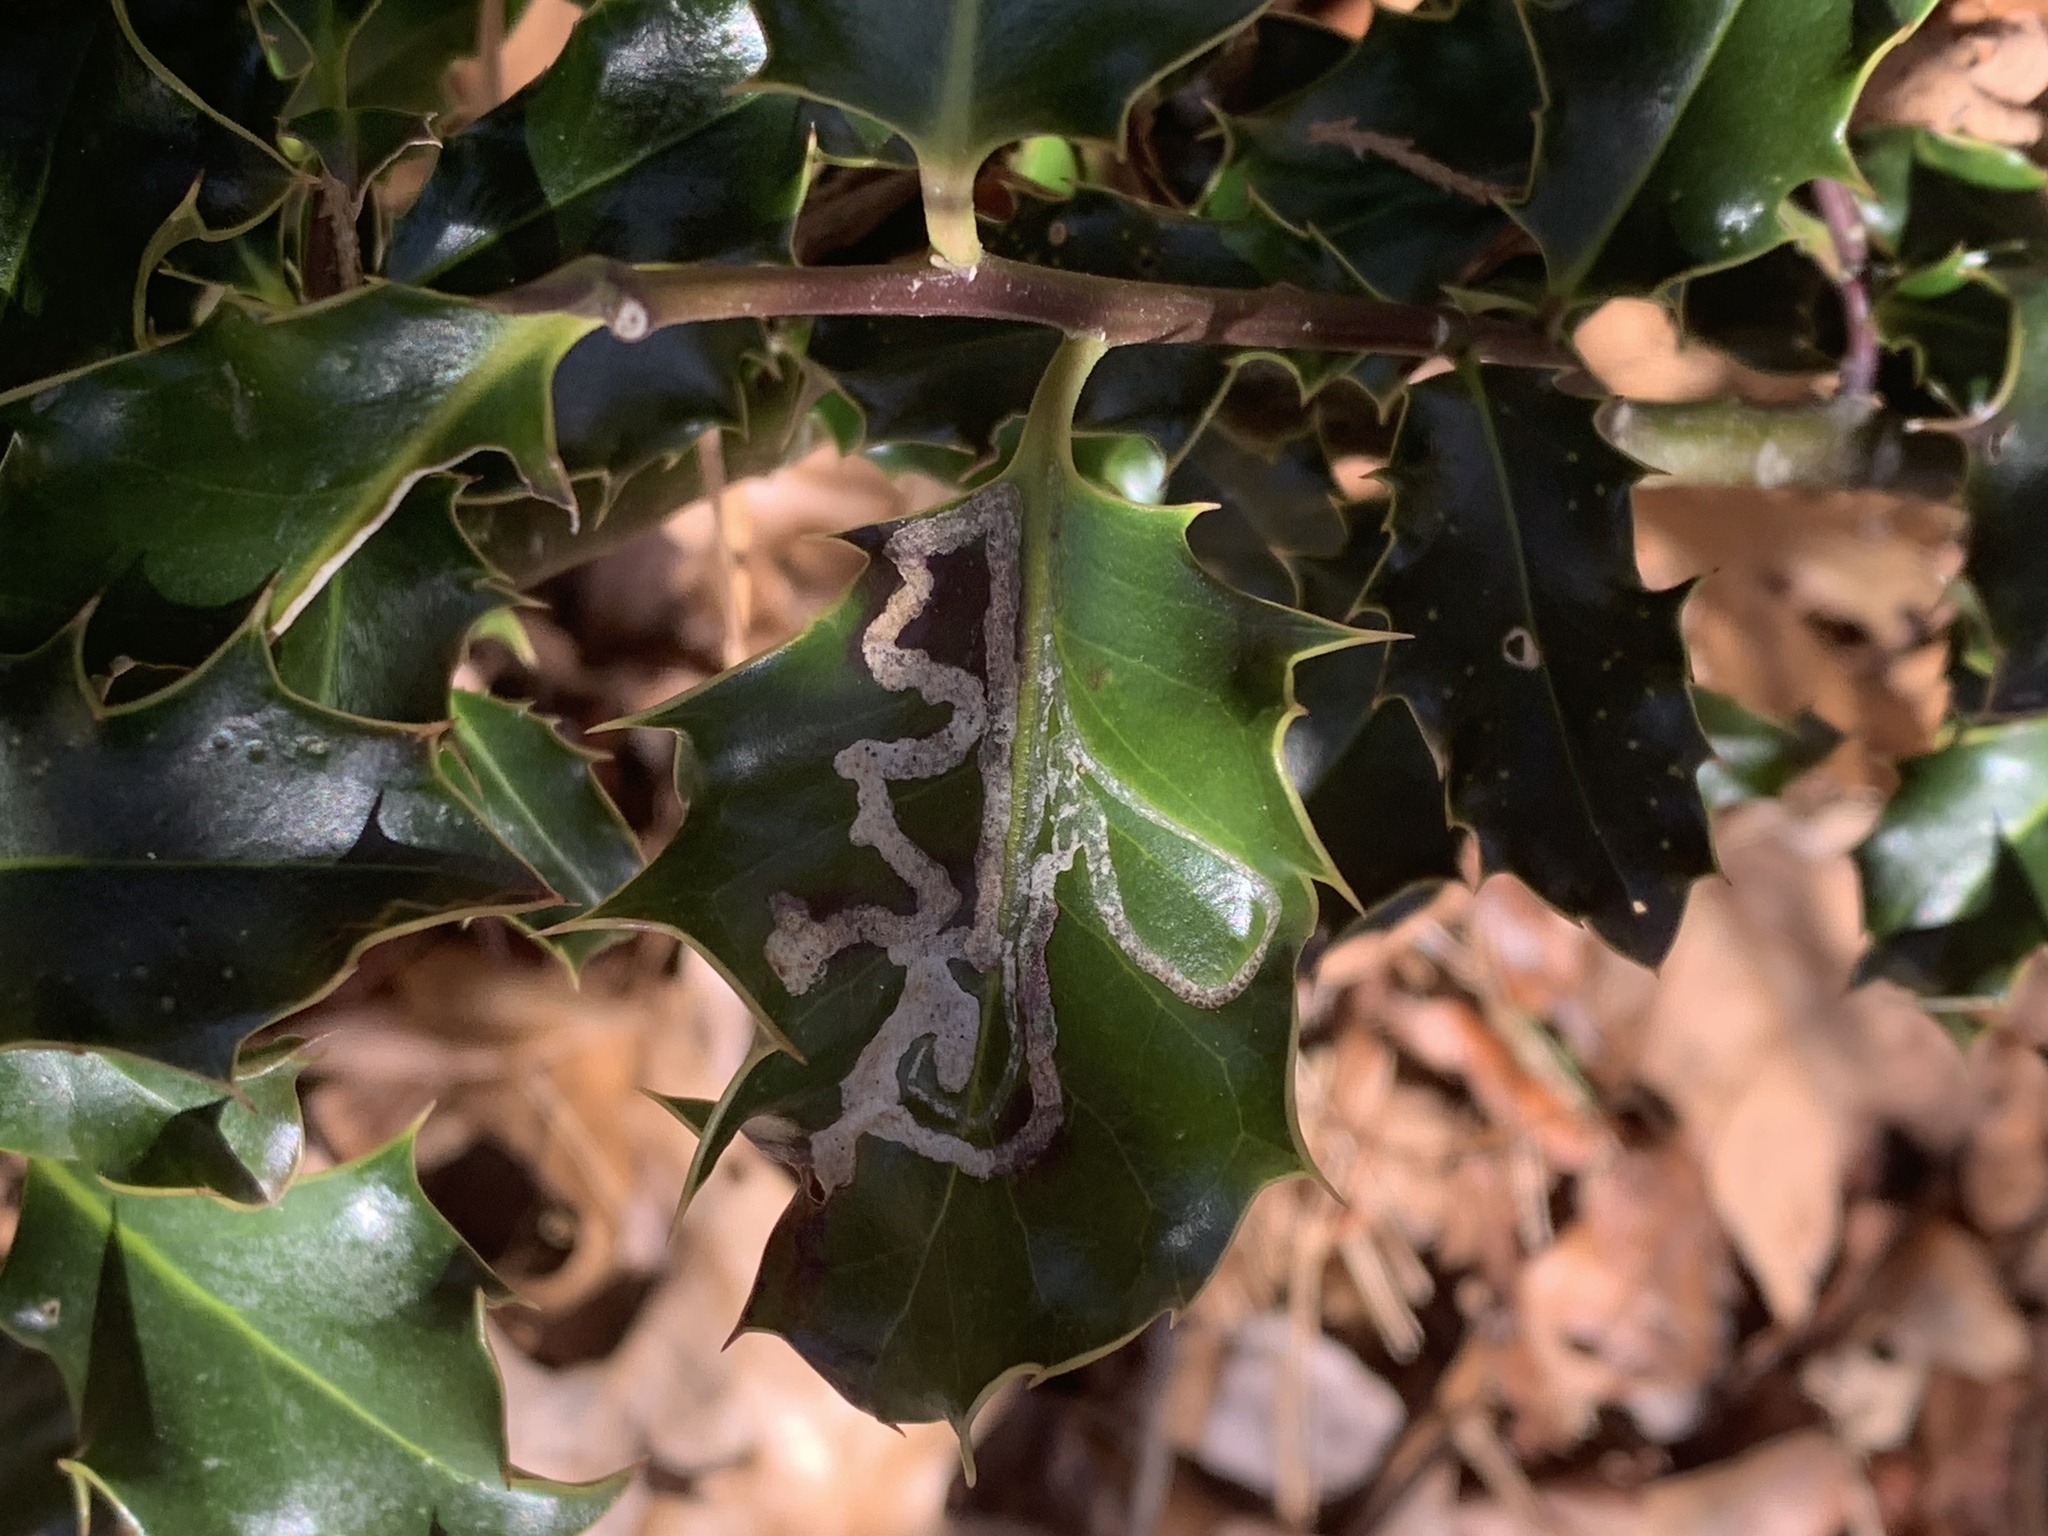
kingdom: Animalia
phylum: Arthropoda
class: Insecta
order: Diptera
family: Agromyzidae
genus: Phytomyza
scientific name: Phytomyza opacae
